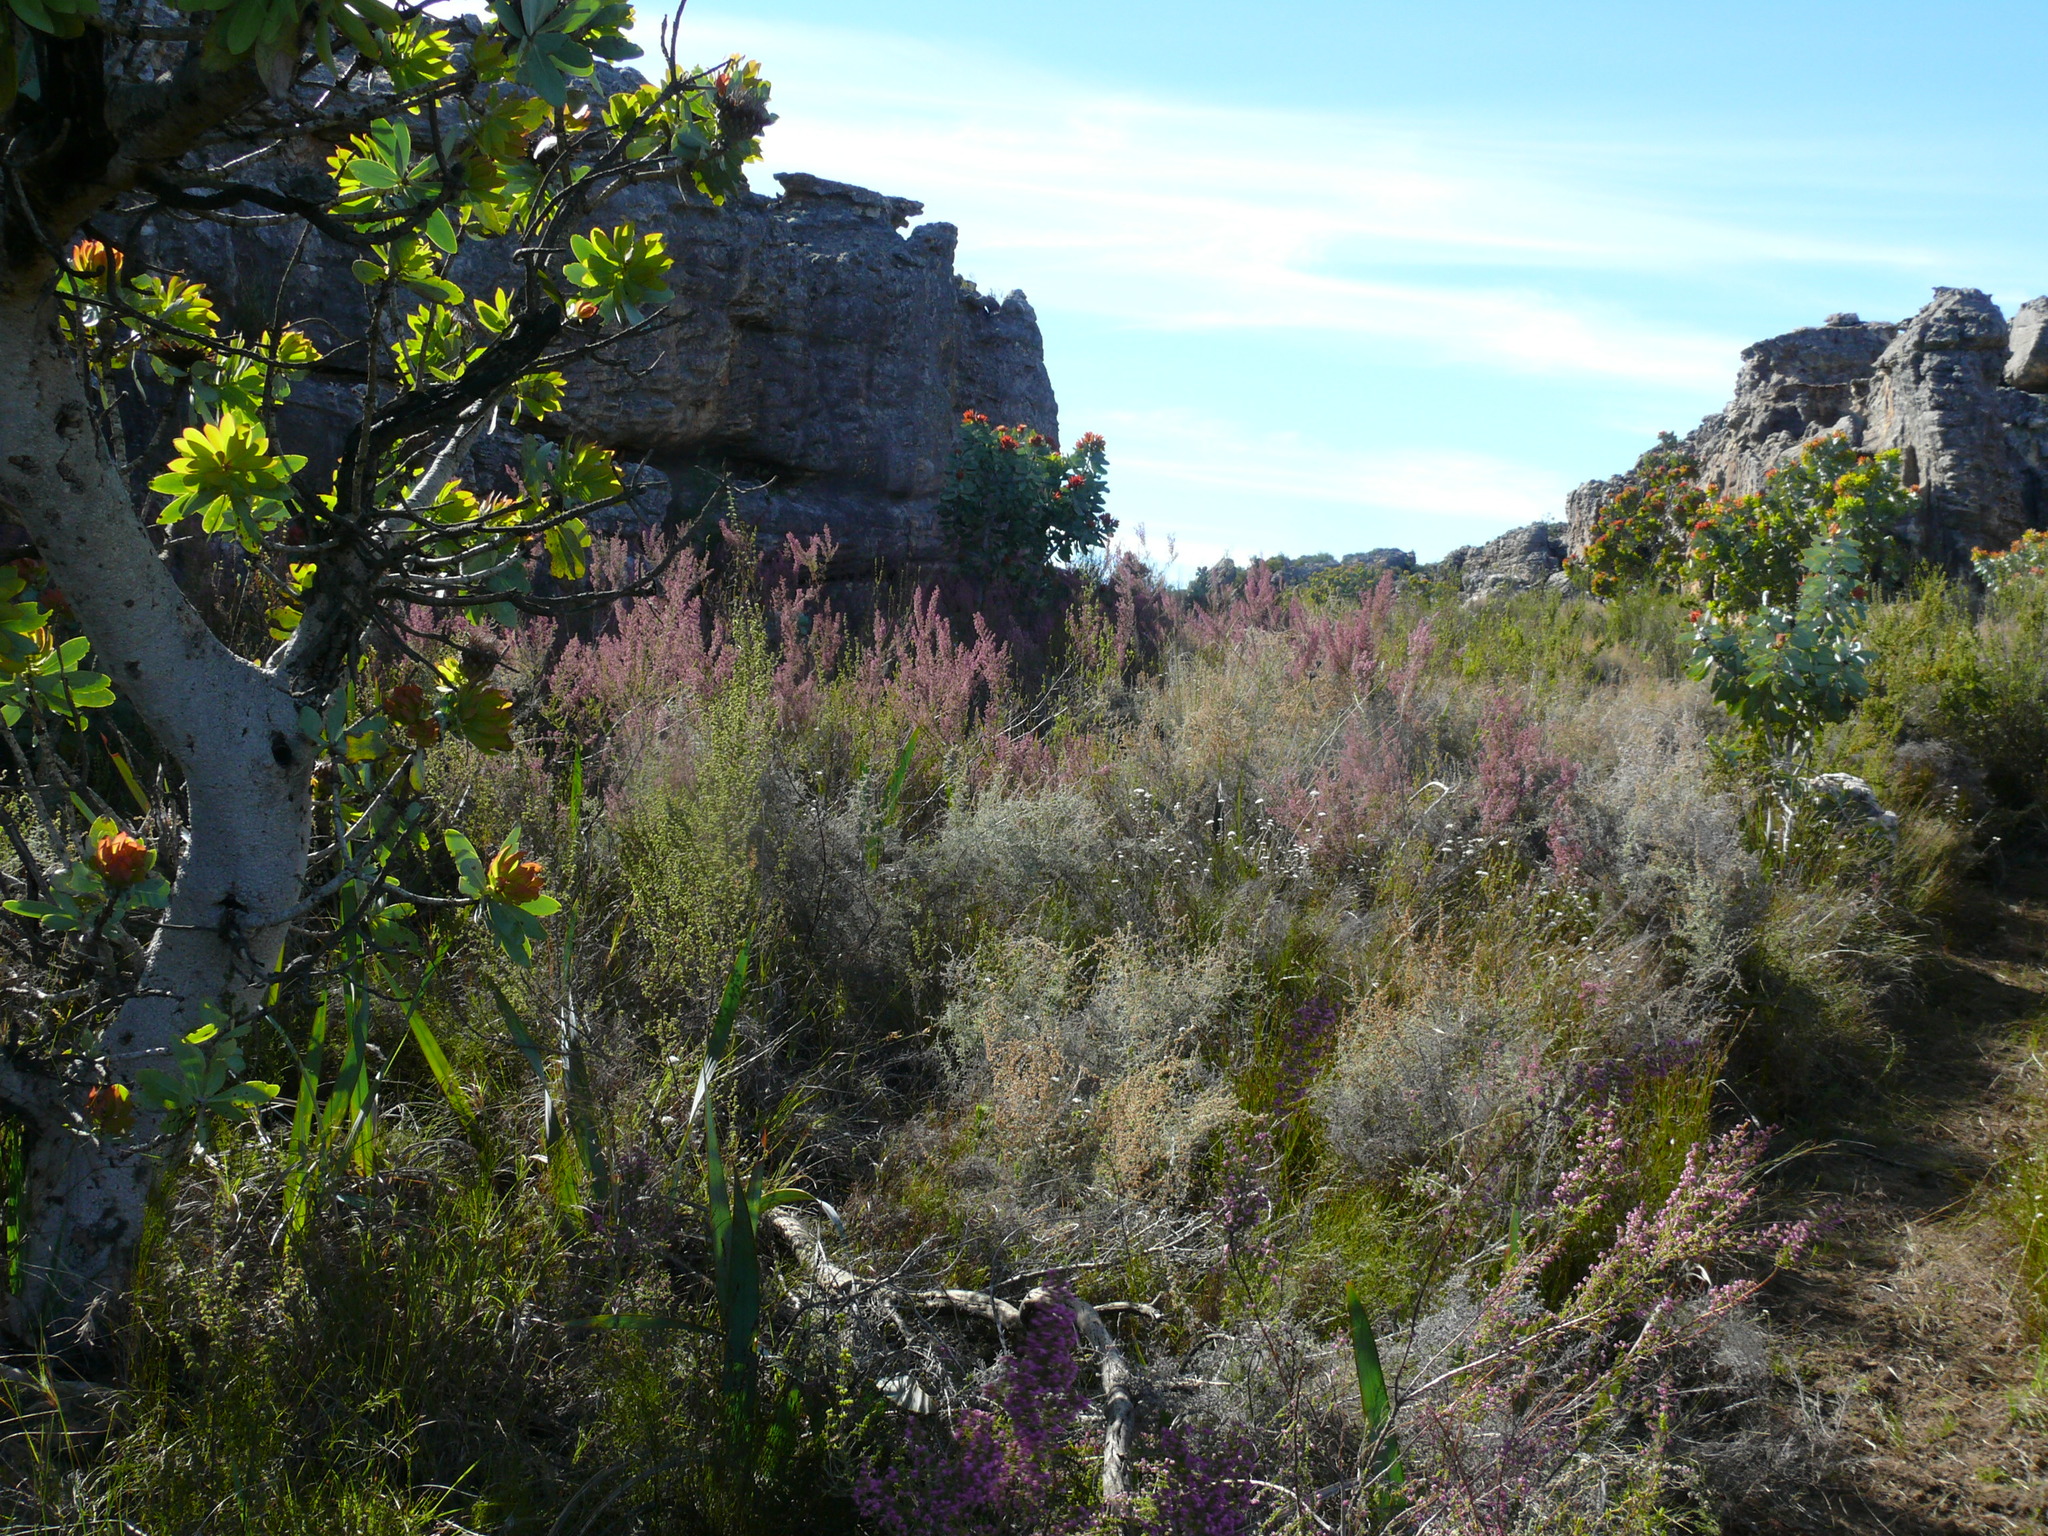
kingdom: Plantae
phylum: Tracheophyta
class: Magnoliopsida
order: Ericales
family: Ericaceae
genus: Erica
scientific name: Erica bicolor
